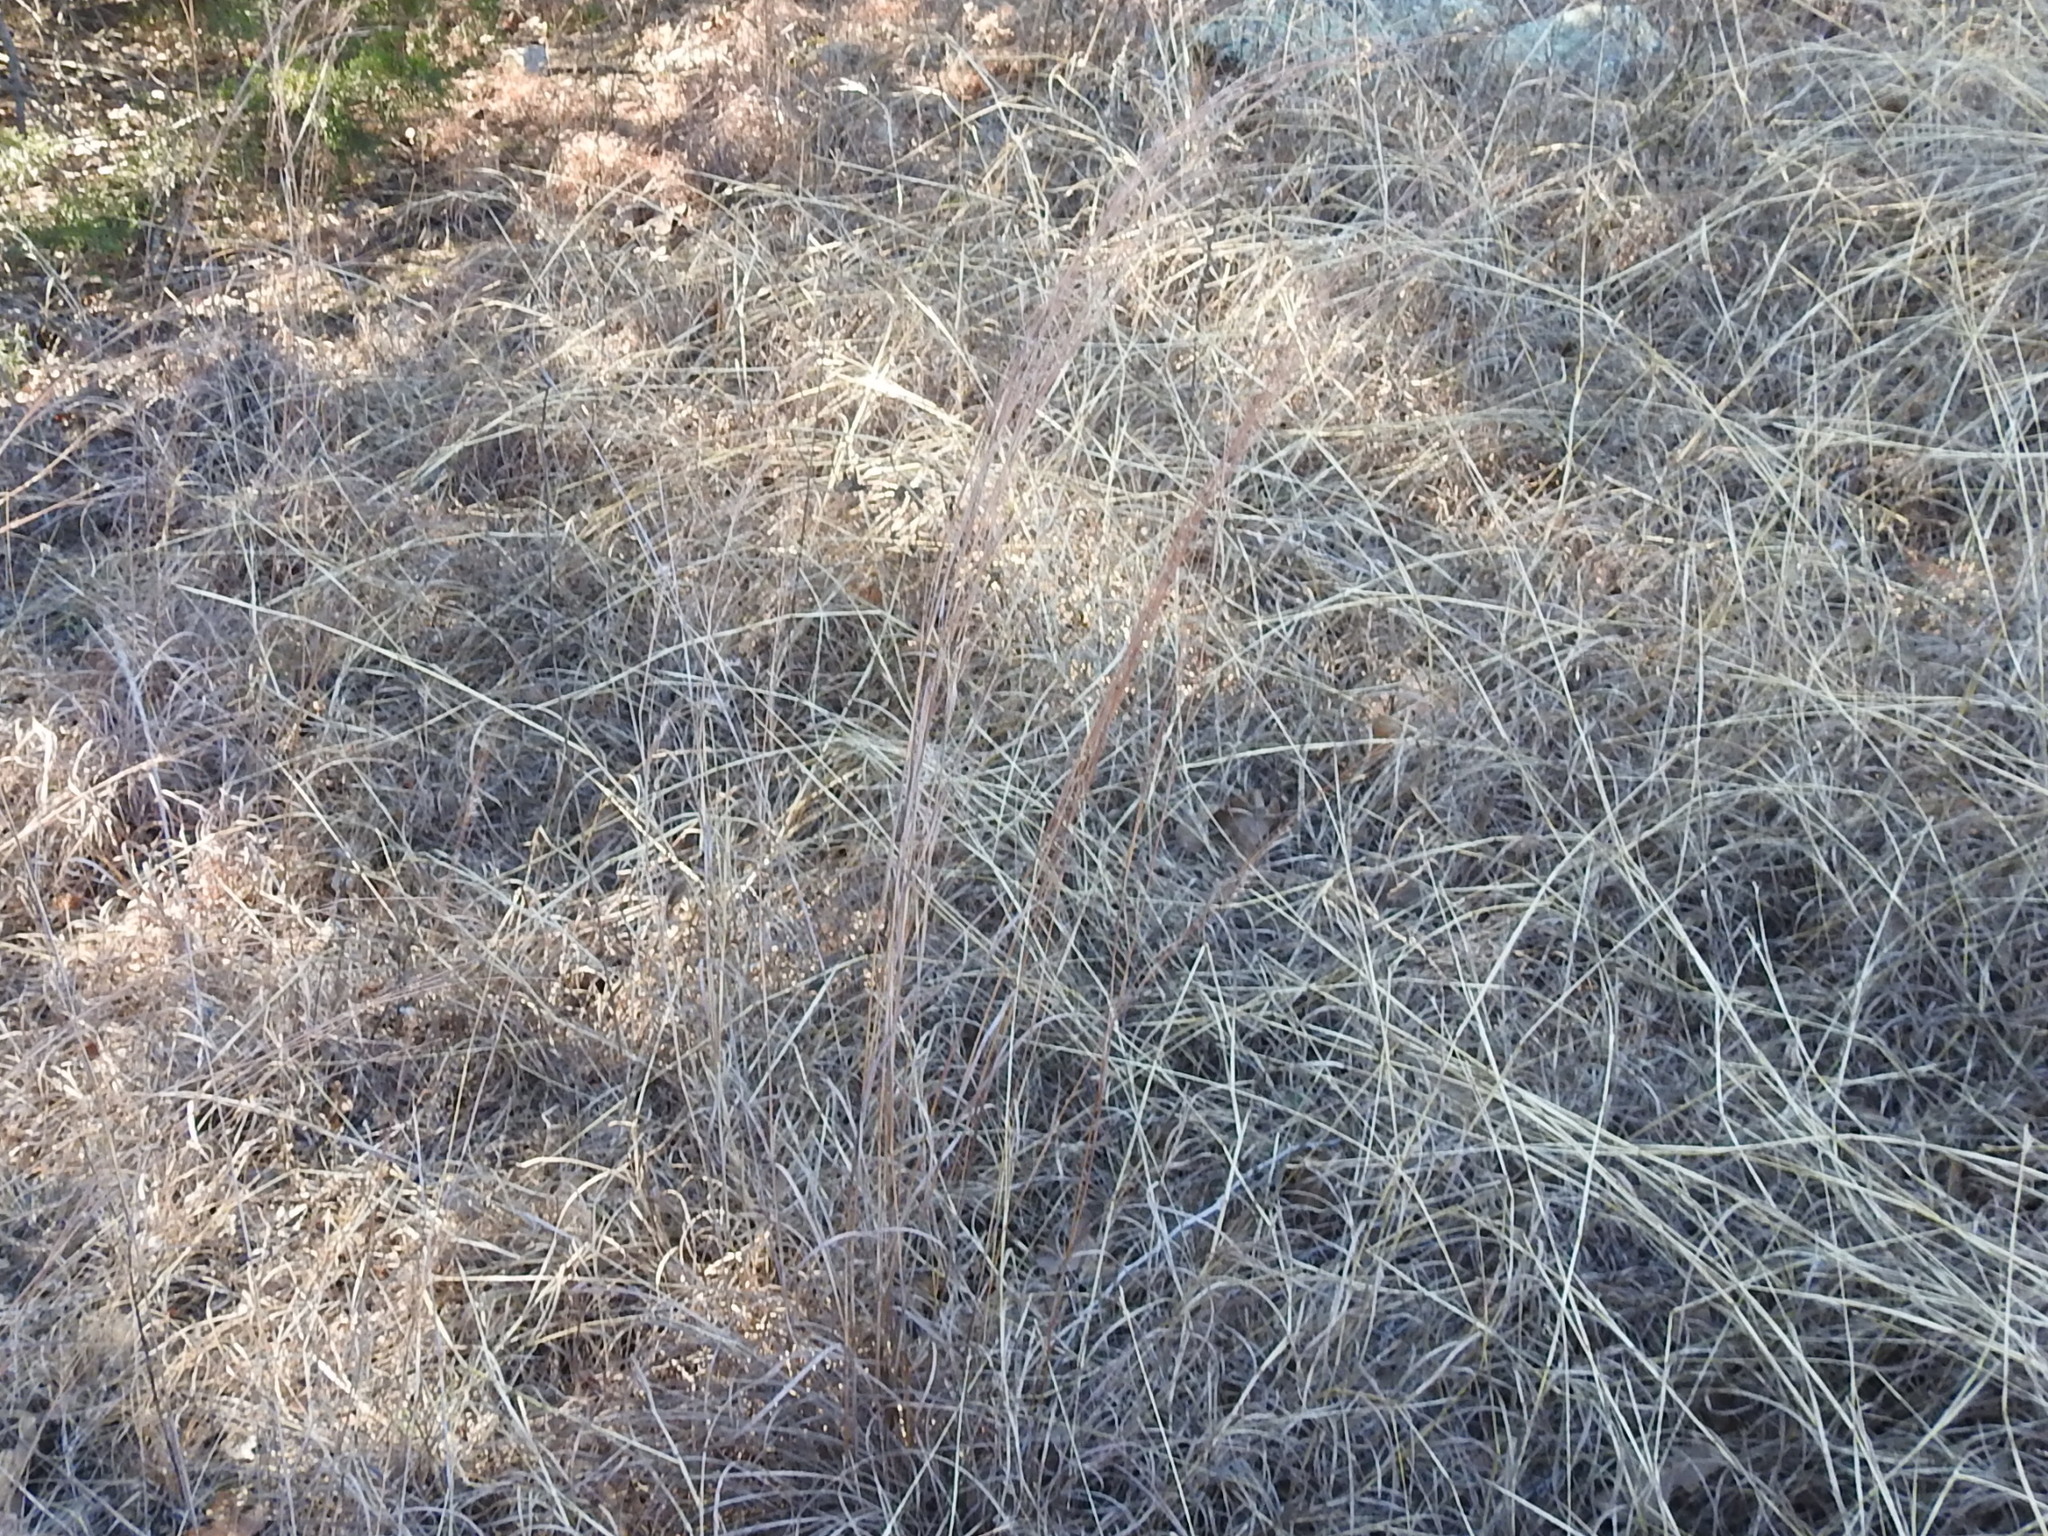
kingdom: Plantae
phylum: Tracheophyta
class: Liliopsida
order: Poales
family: Poaceae
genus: Schizachyrium
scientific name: Schizachyrium scoparium
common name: Little bluestem
